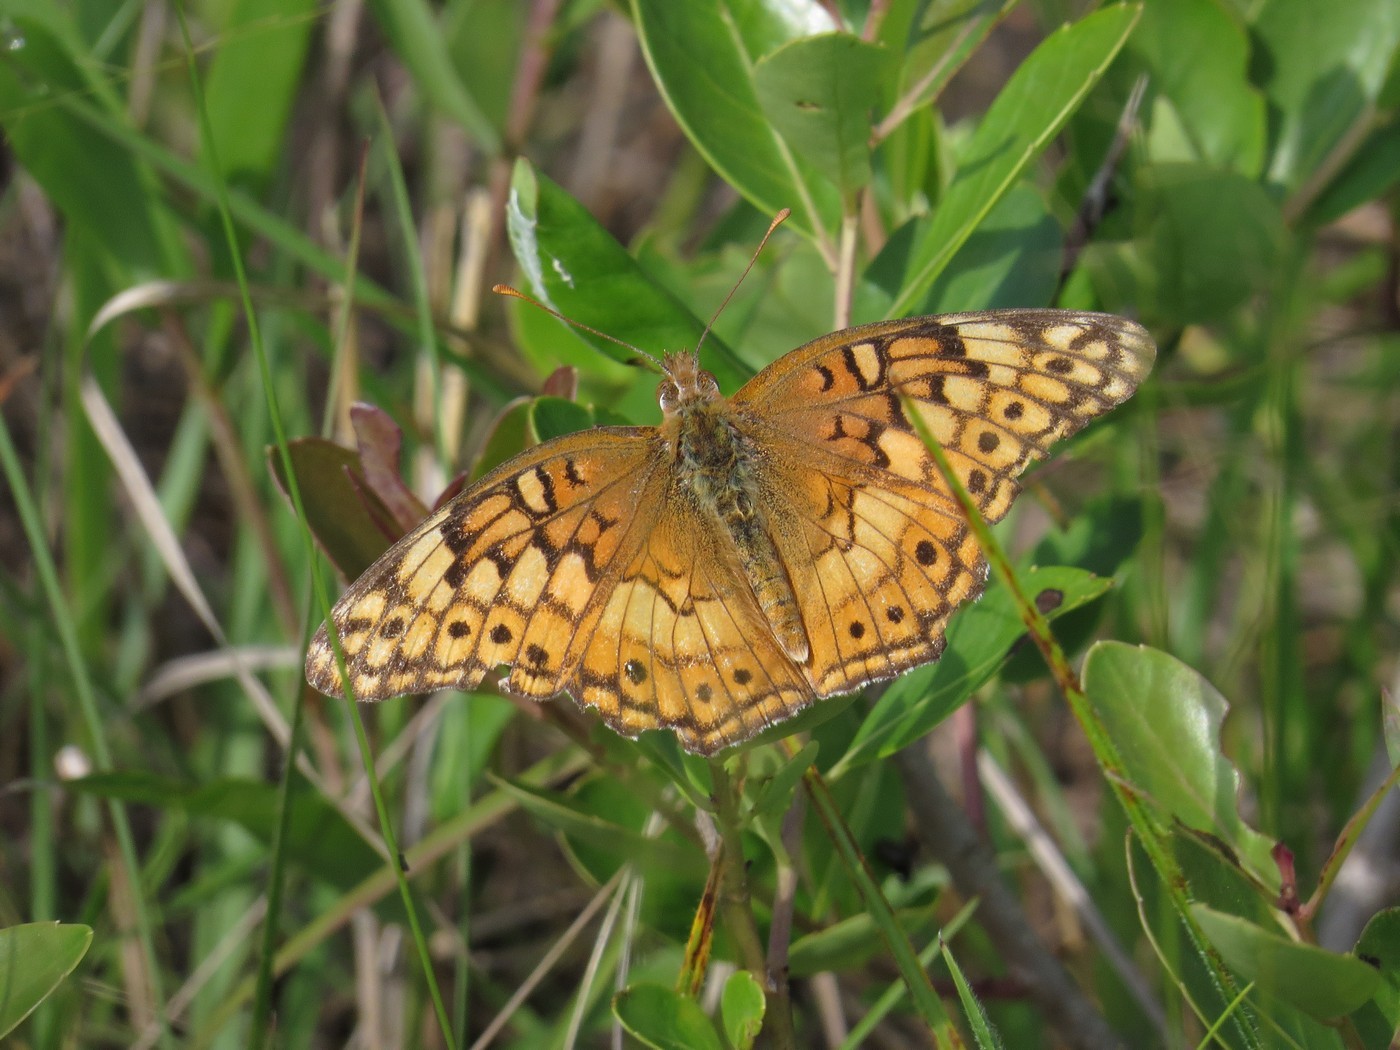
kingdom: Animalia
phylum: Arthropoda
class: Insecta
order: Lepidoptera
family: Nymphalidae
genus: Euptoieta
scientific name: Euptoieta claudia
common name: Variegated fritillary
